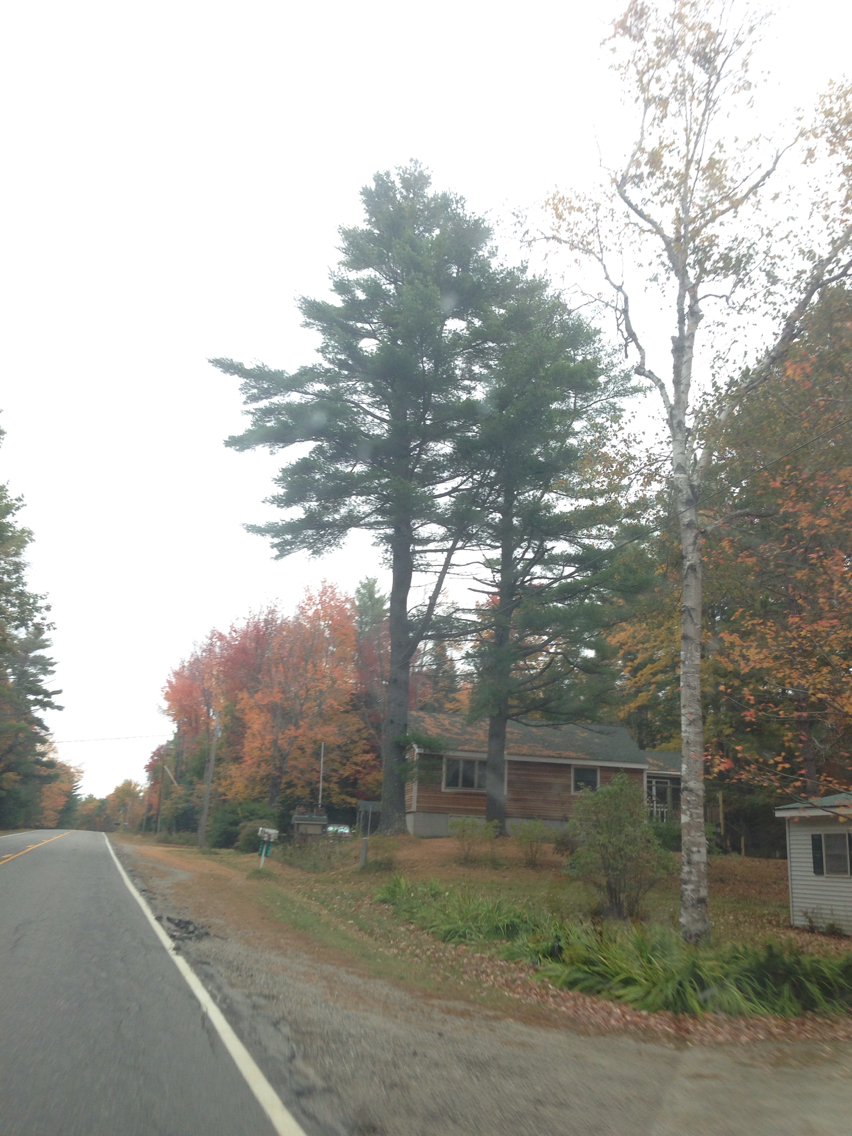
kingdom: Plantae
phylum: Tracheophyta
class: Pinopsida
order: Pinales
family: Pinaceae
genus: Pinus
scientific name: Pinus strobus
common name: Weymouth pine
